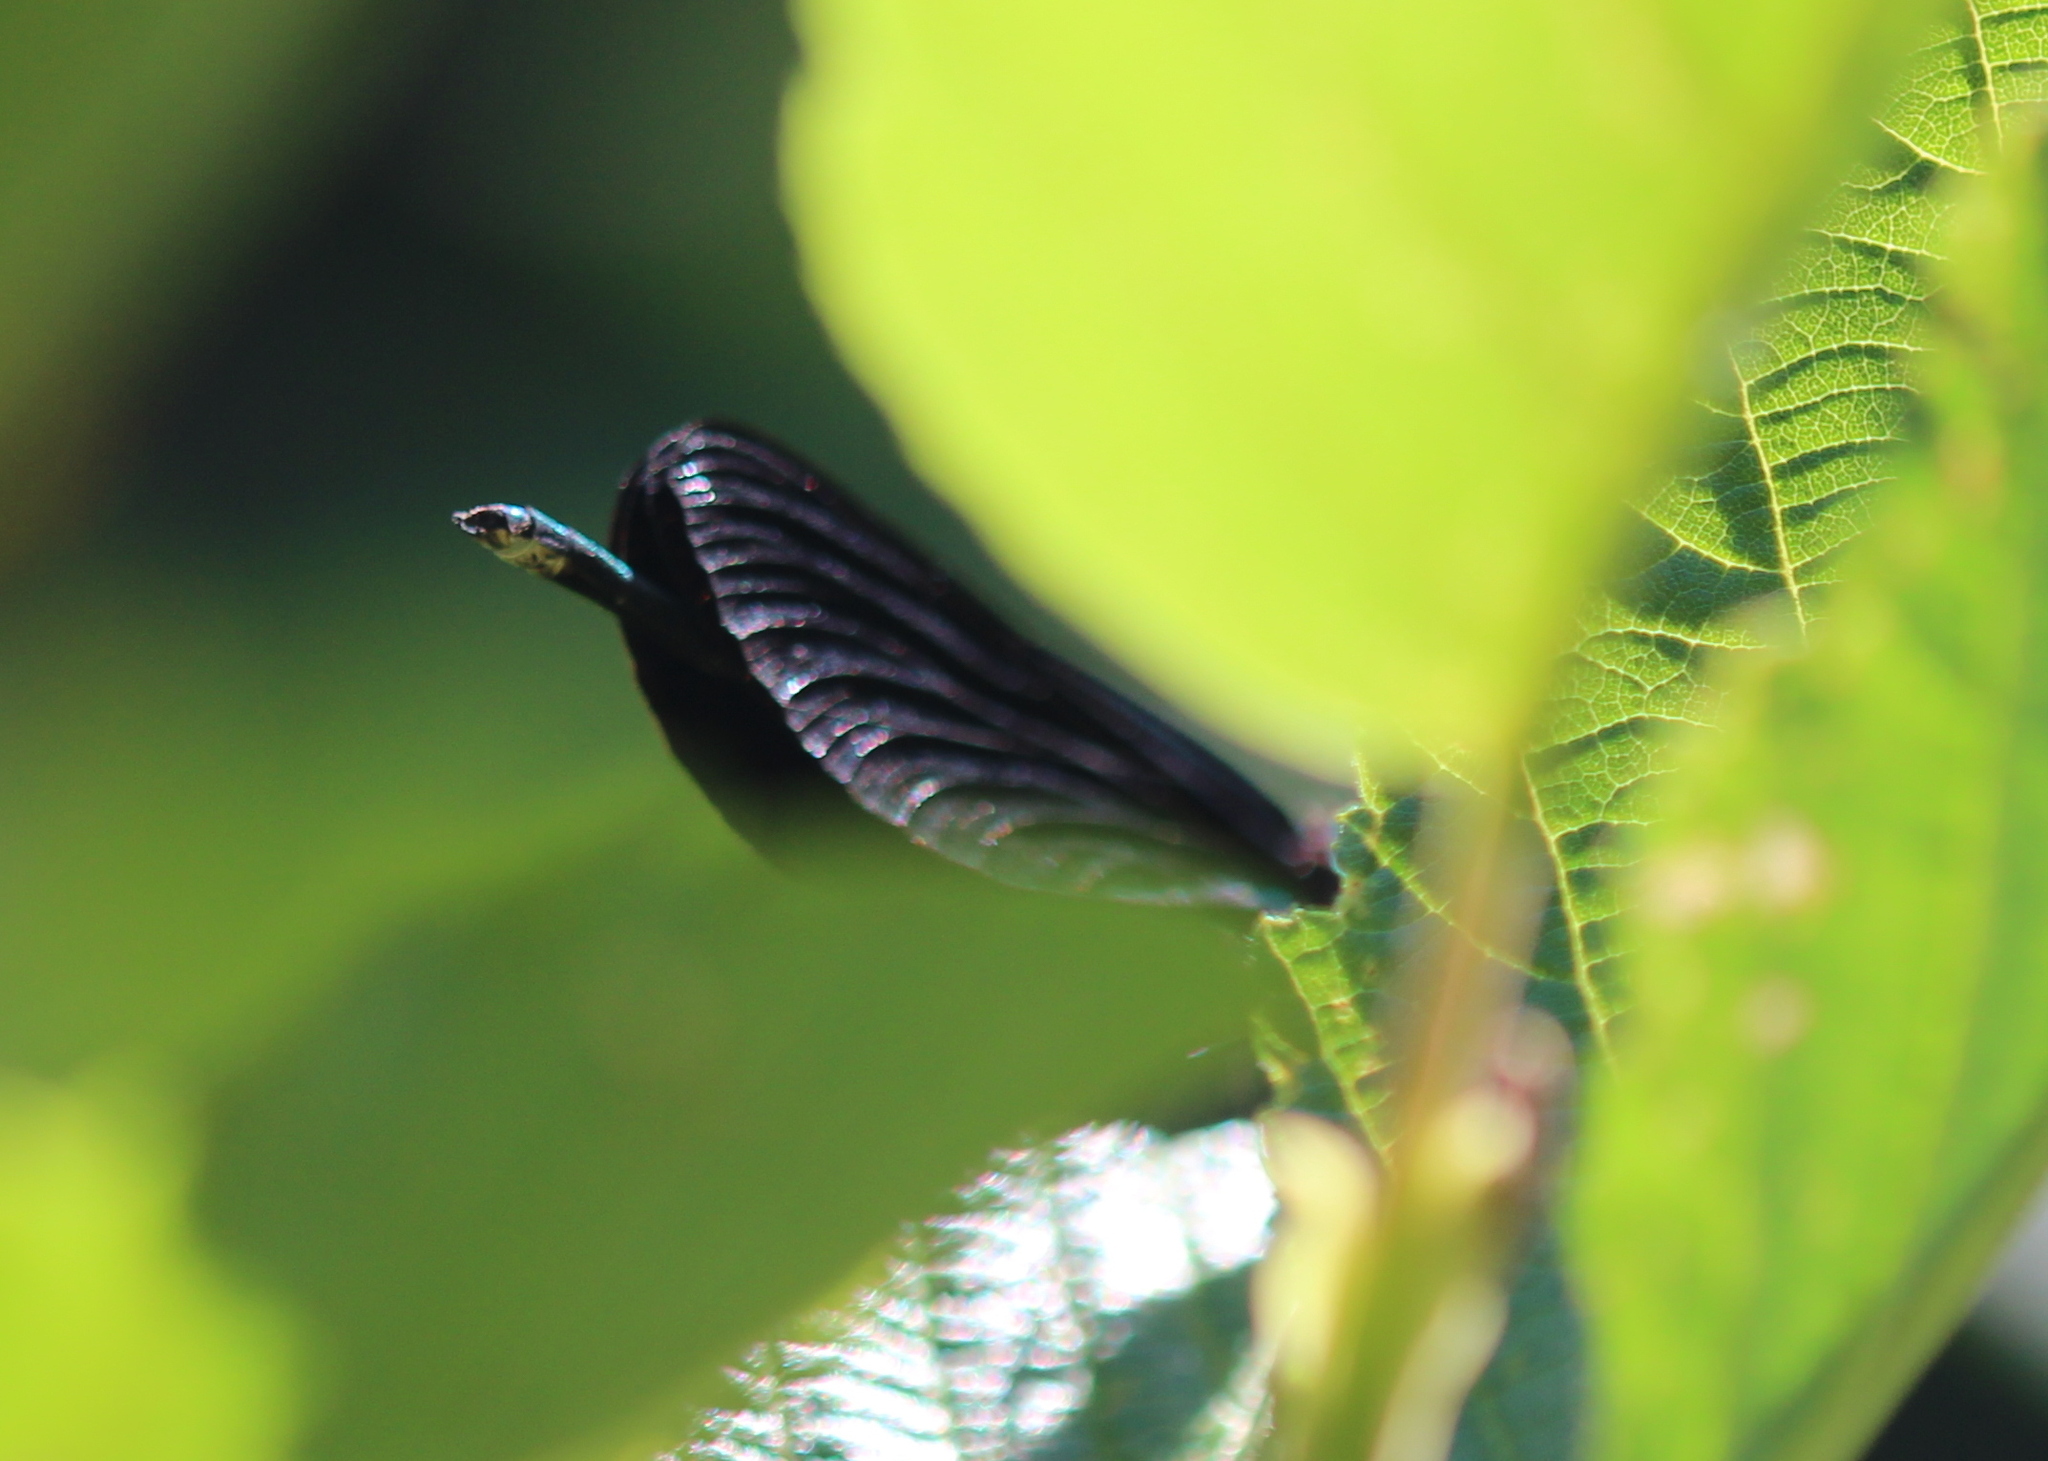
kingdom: Animalia
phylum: Arthropoda
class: Insecta
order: Odonata
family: Calopterygidae
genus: Calopteryx
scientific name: Calopteryx maculata
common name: Ebony jewelwing
